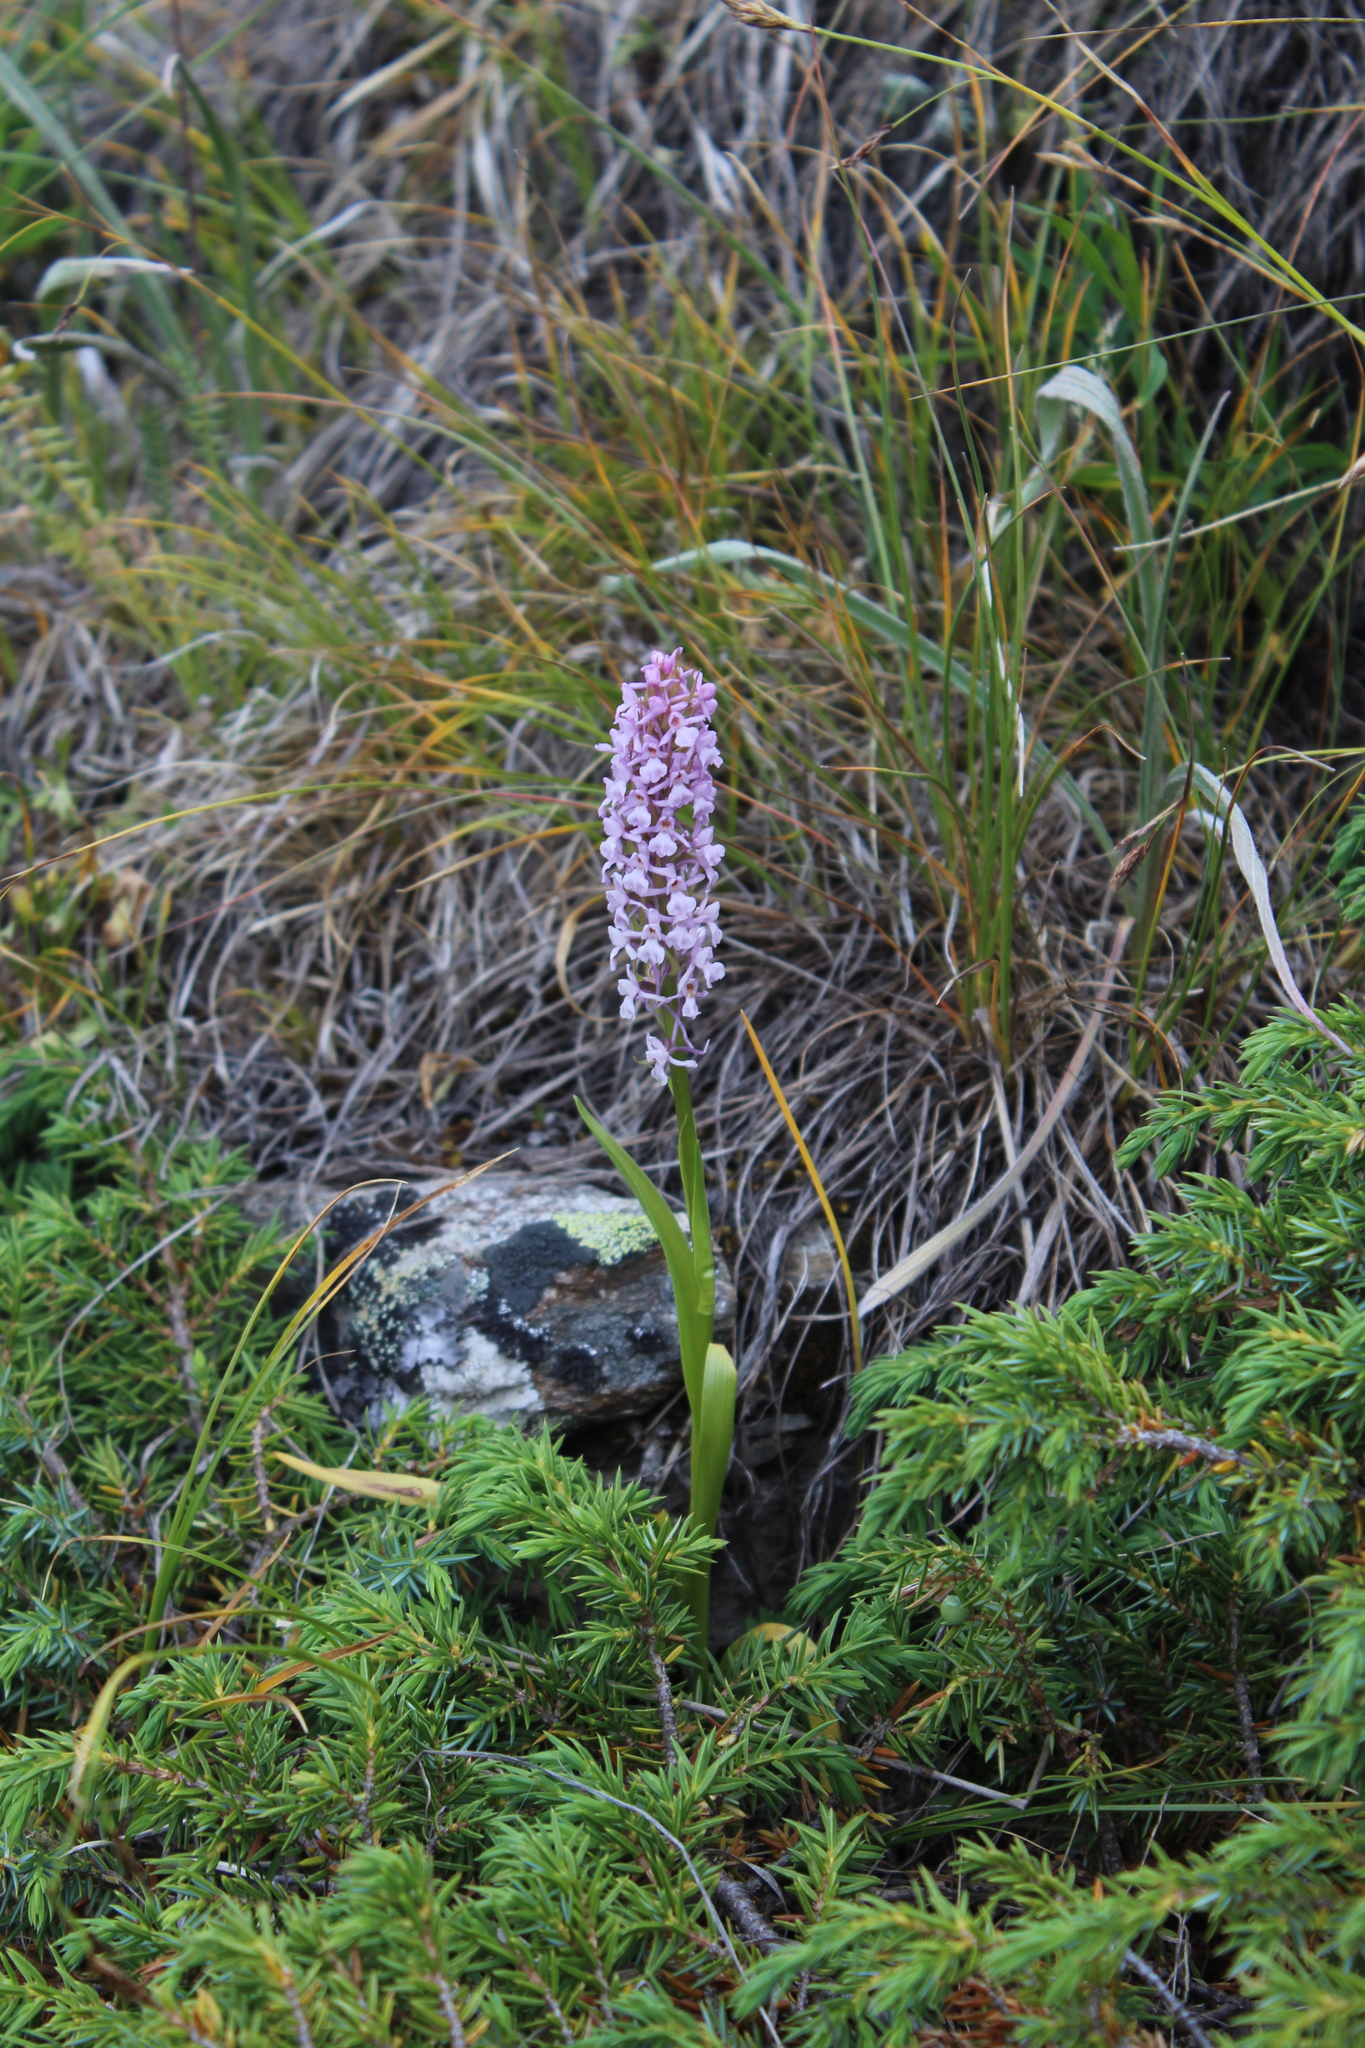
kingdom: Plantae
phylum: Tracheophyta
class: Liliopsida
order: Asparagales
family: Orchidaceae
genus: Gymnadenia
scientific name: Gymnadenia conopsea
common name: Fragrant orchid
